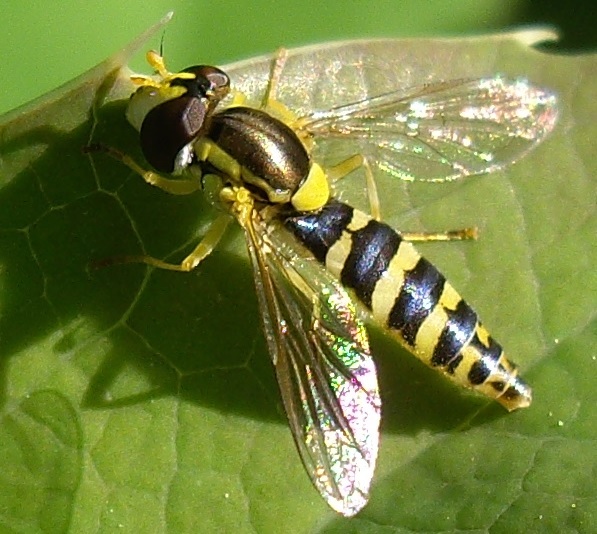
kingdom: Animalia
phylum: Arthropoda
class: Insecta
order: Diptera
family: Syrphidae
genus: Sphaerophoria
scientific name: Sphaerophoria
